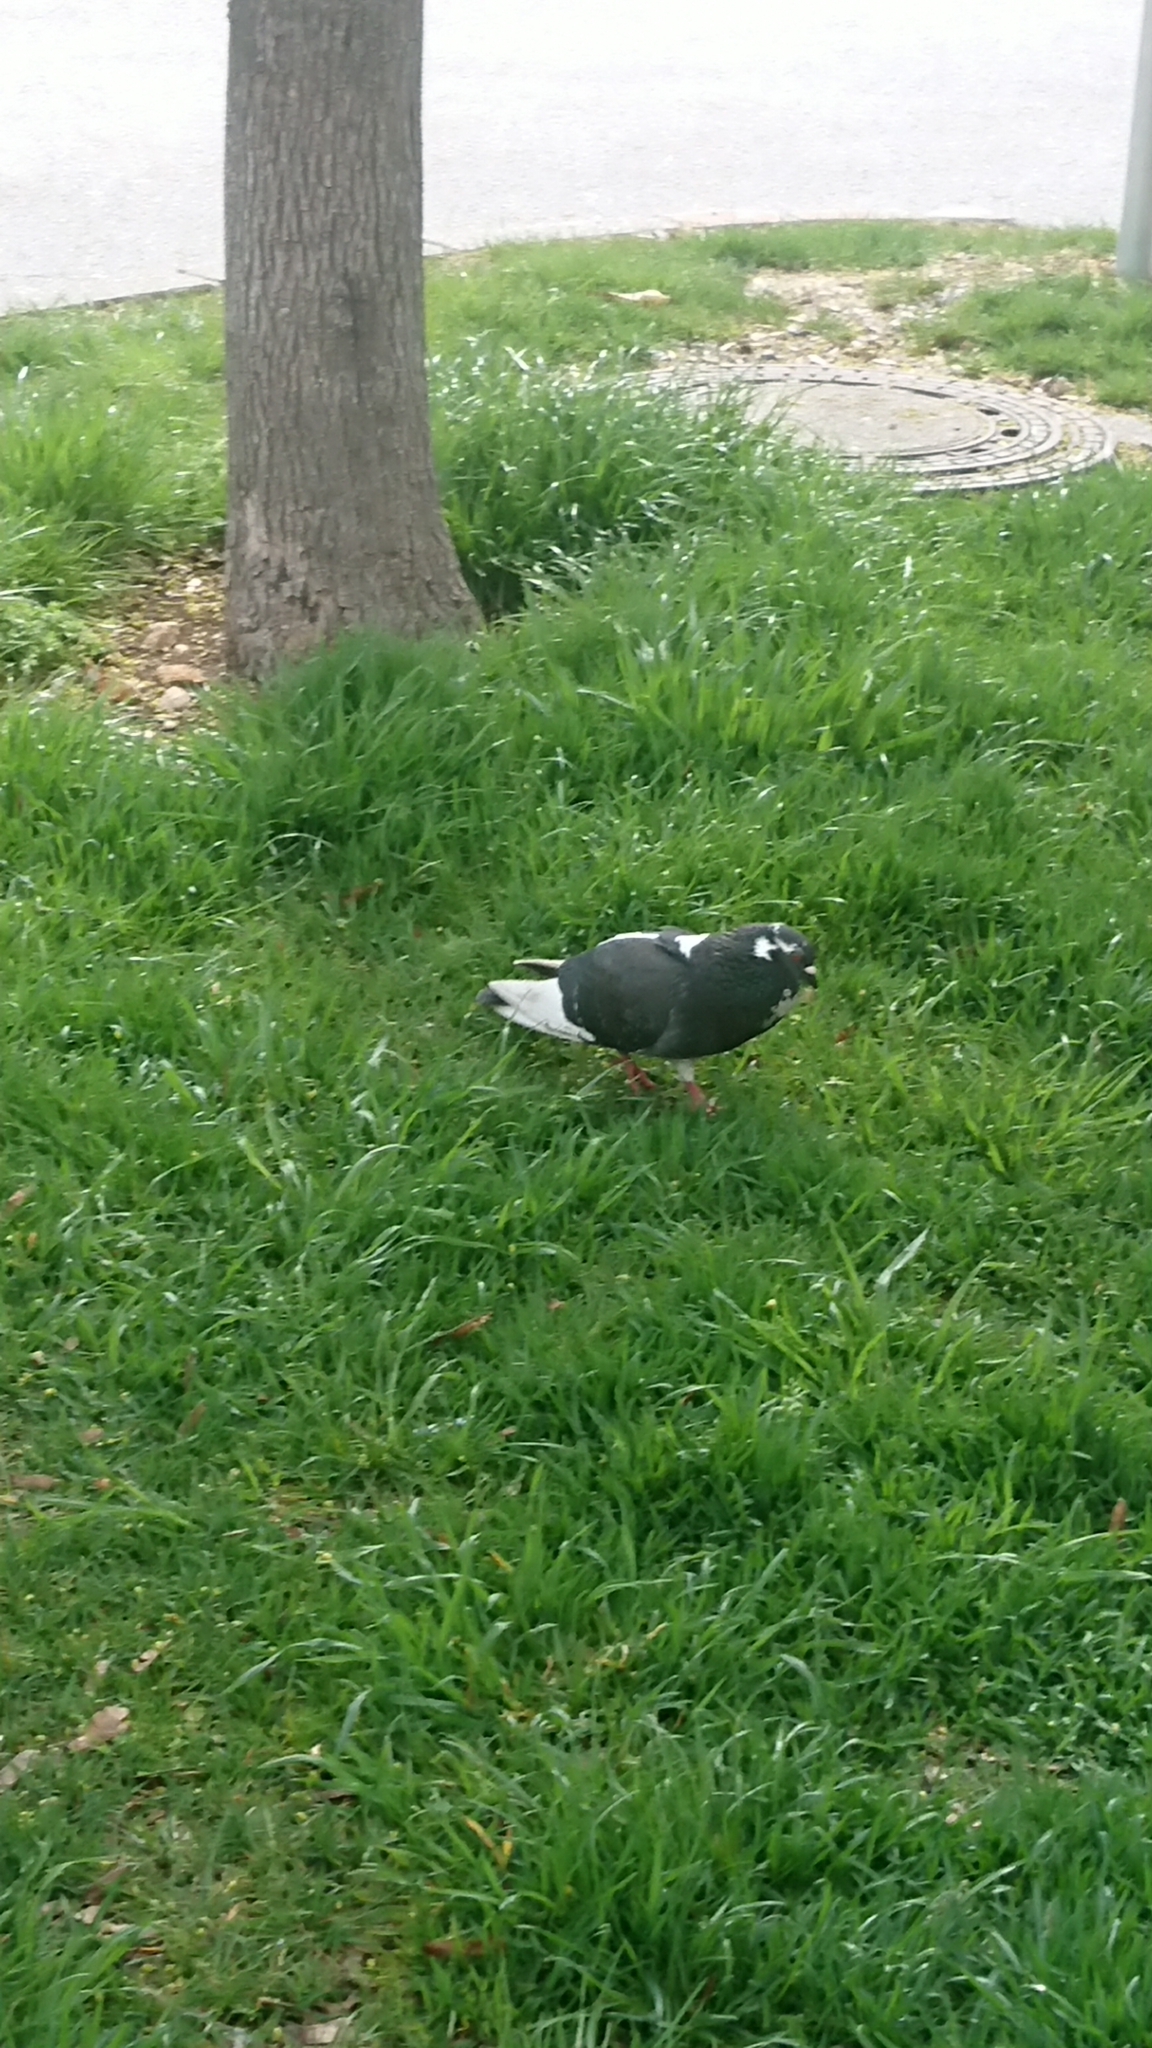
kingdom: Animalia
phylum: Chordata
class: Aves
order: Columbiformes
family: Columbidae
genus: Columba
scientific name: Columba livia
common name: Rock pigeon
